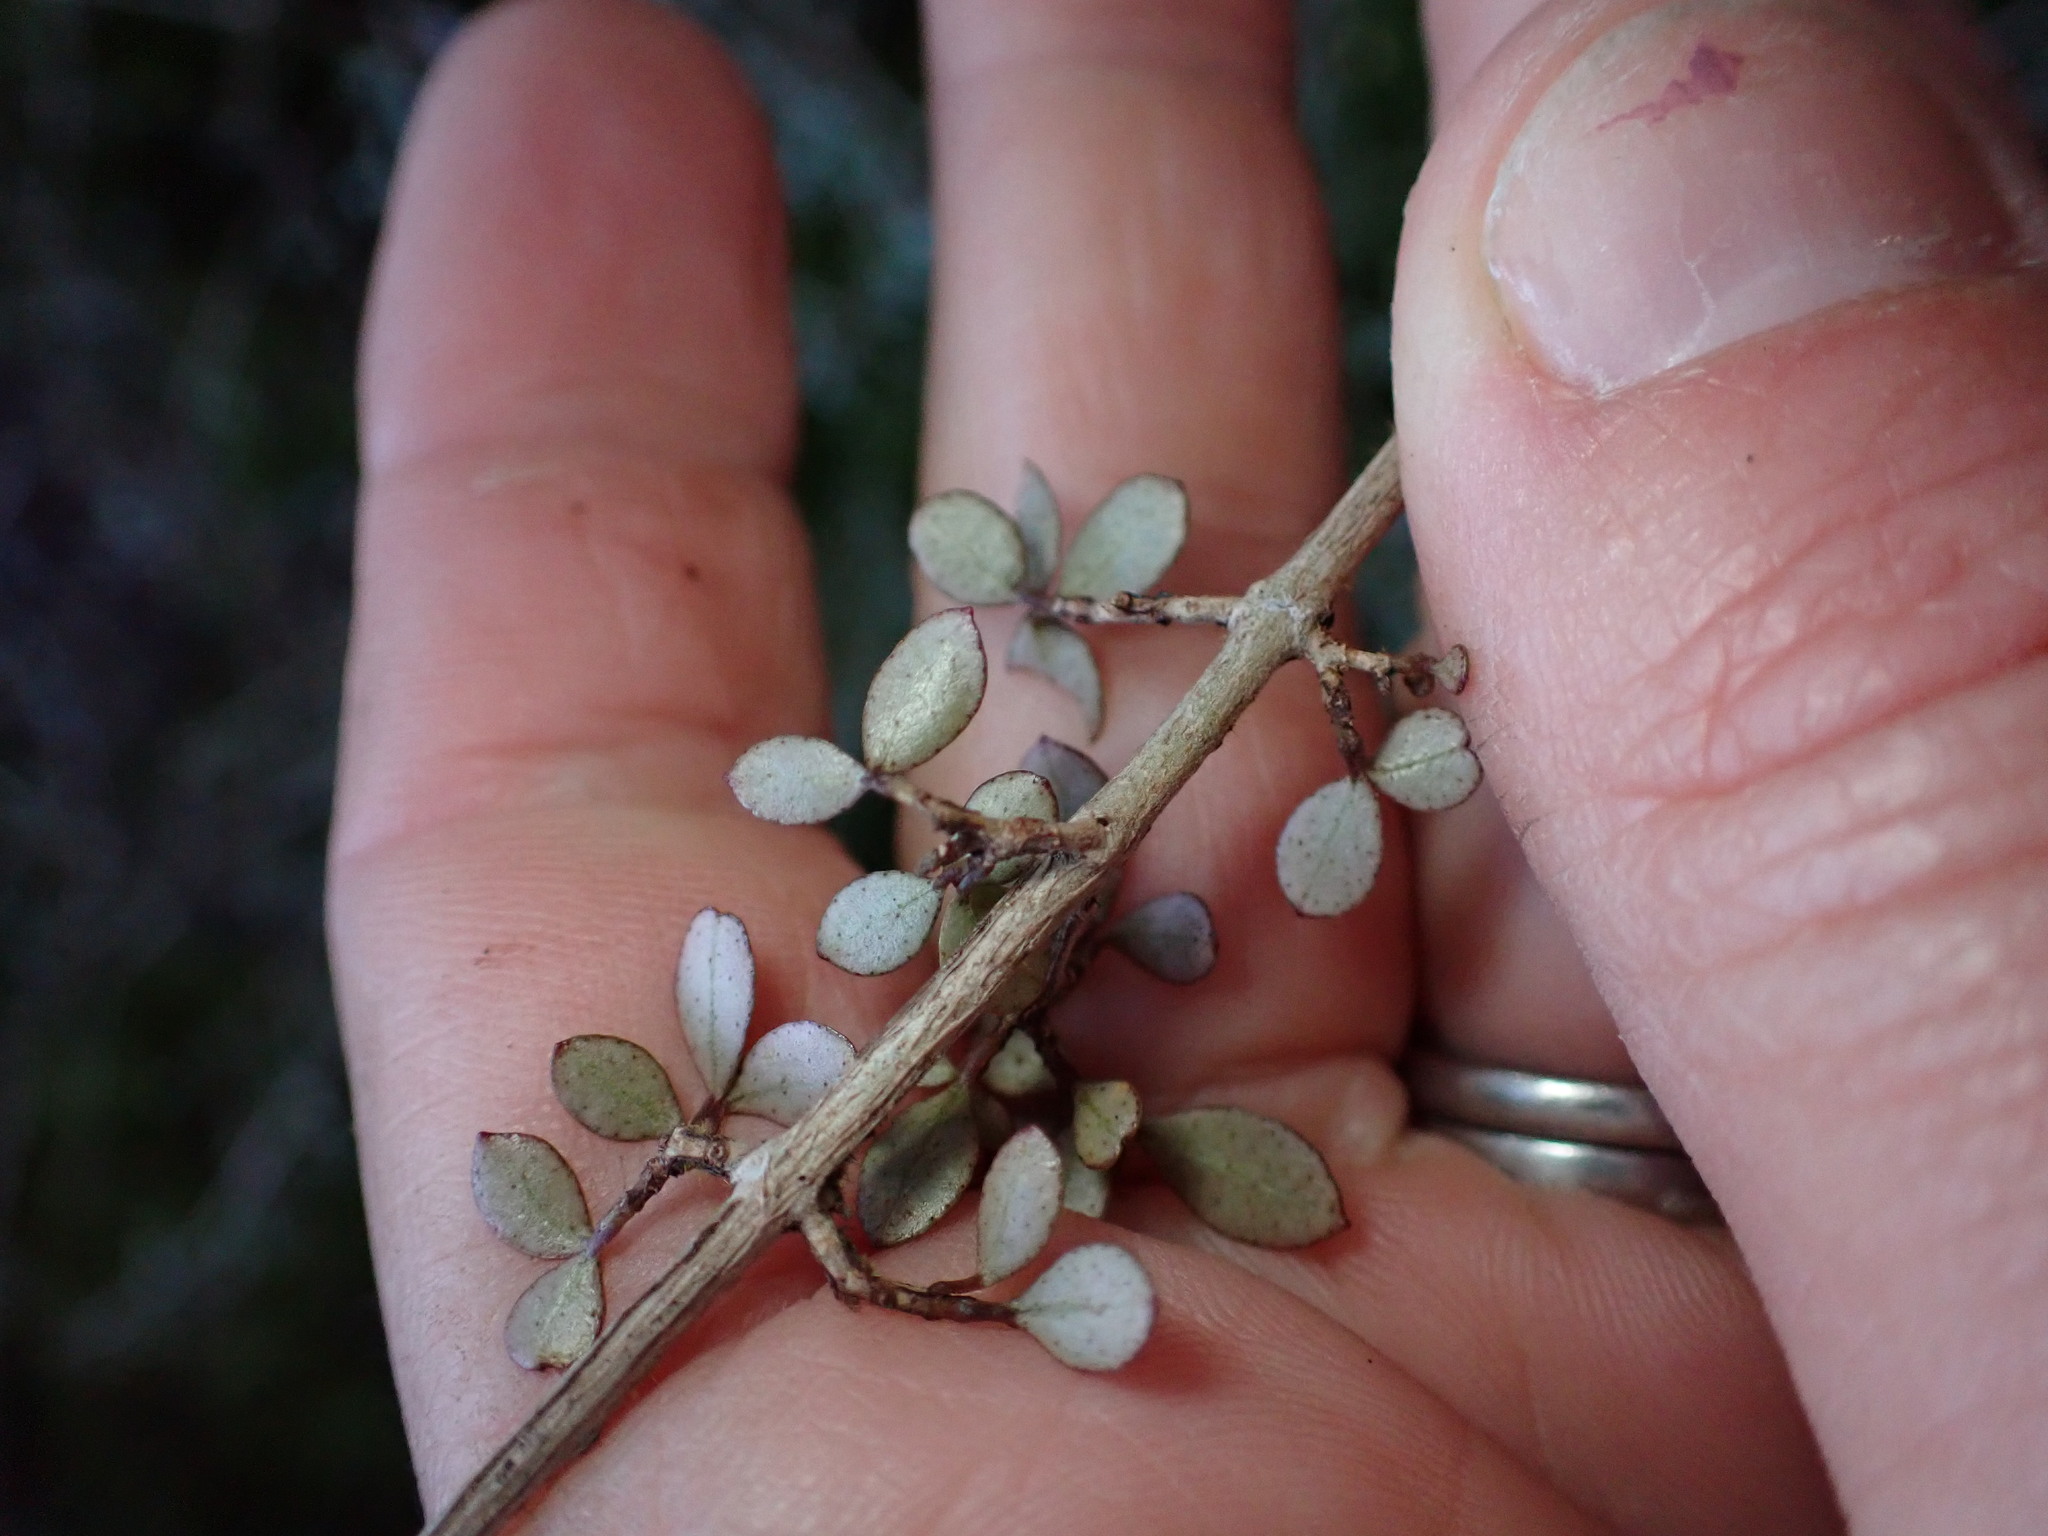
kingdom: Plantae
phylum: Tracheophyta
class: Magnoliopsida
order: Myrtales
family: Myrtaceae
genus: Neomyrtus
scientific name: Neomyrtus pedunculata
